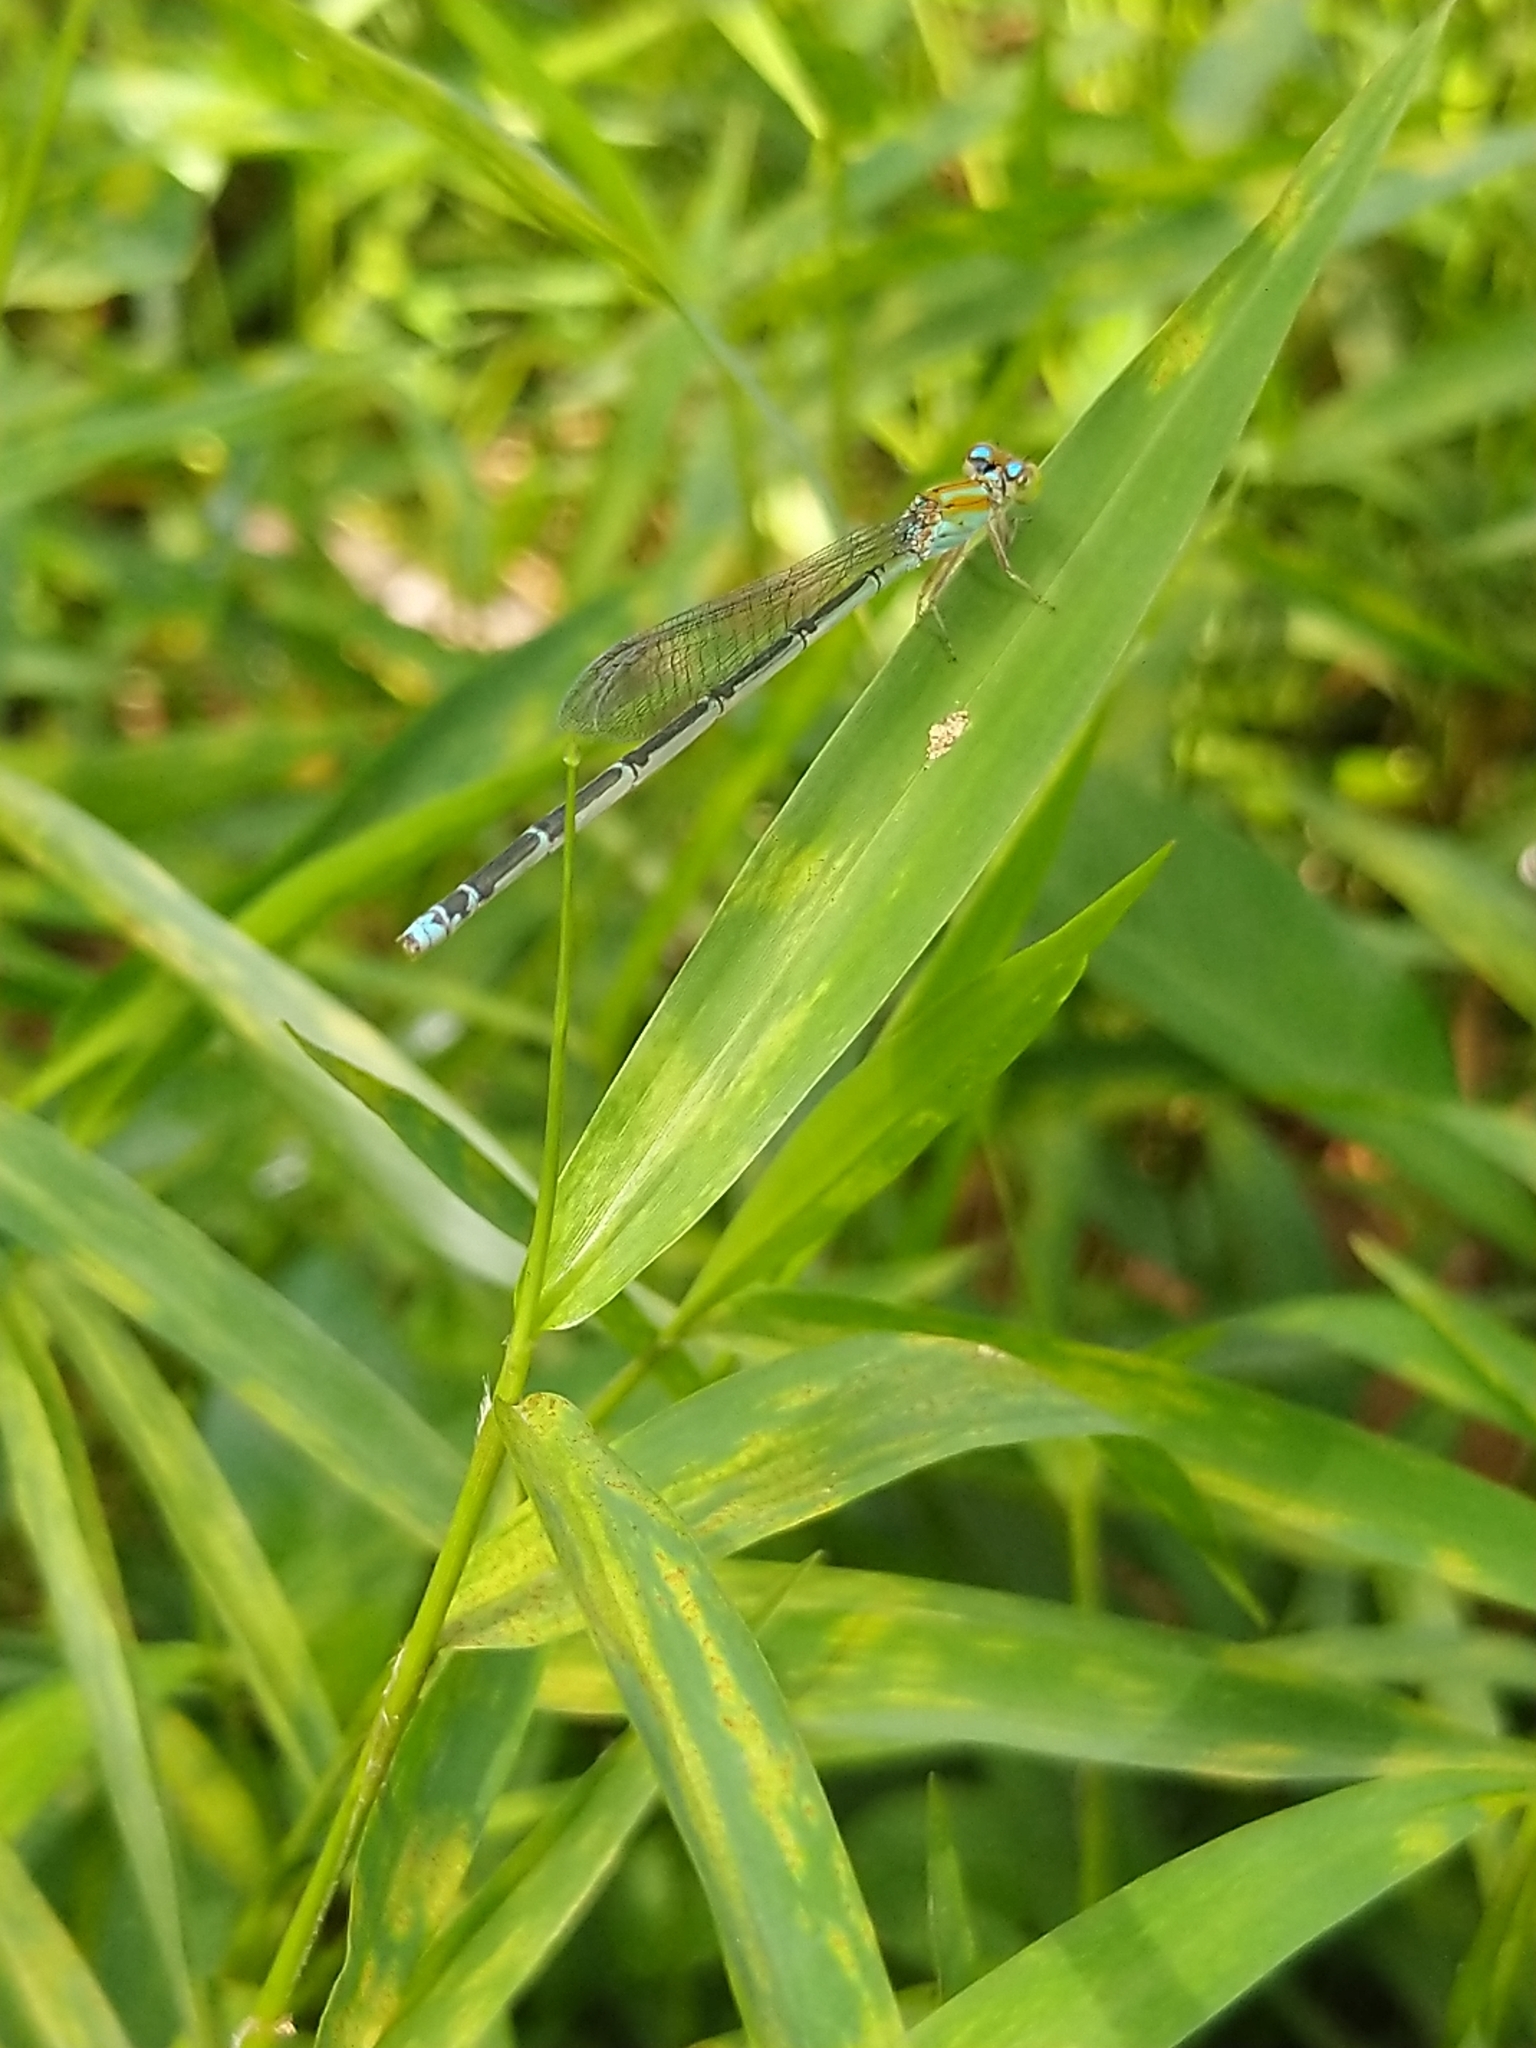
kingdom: Animalia
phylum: Arthropoda
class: Insecta
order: Odonata
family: Coenagrionidae
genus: Pseudagrion
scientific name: Pseudagrion microcephalum
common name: Blue riverdamsel
